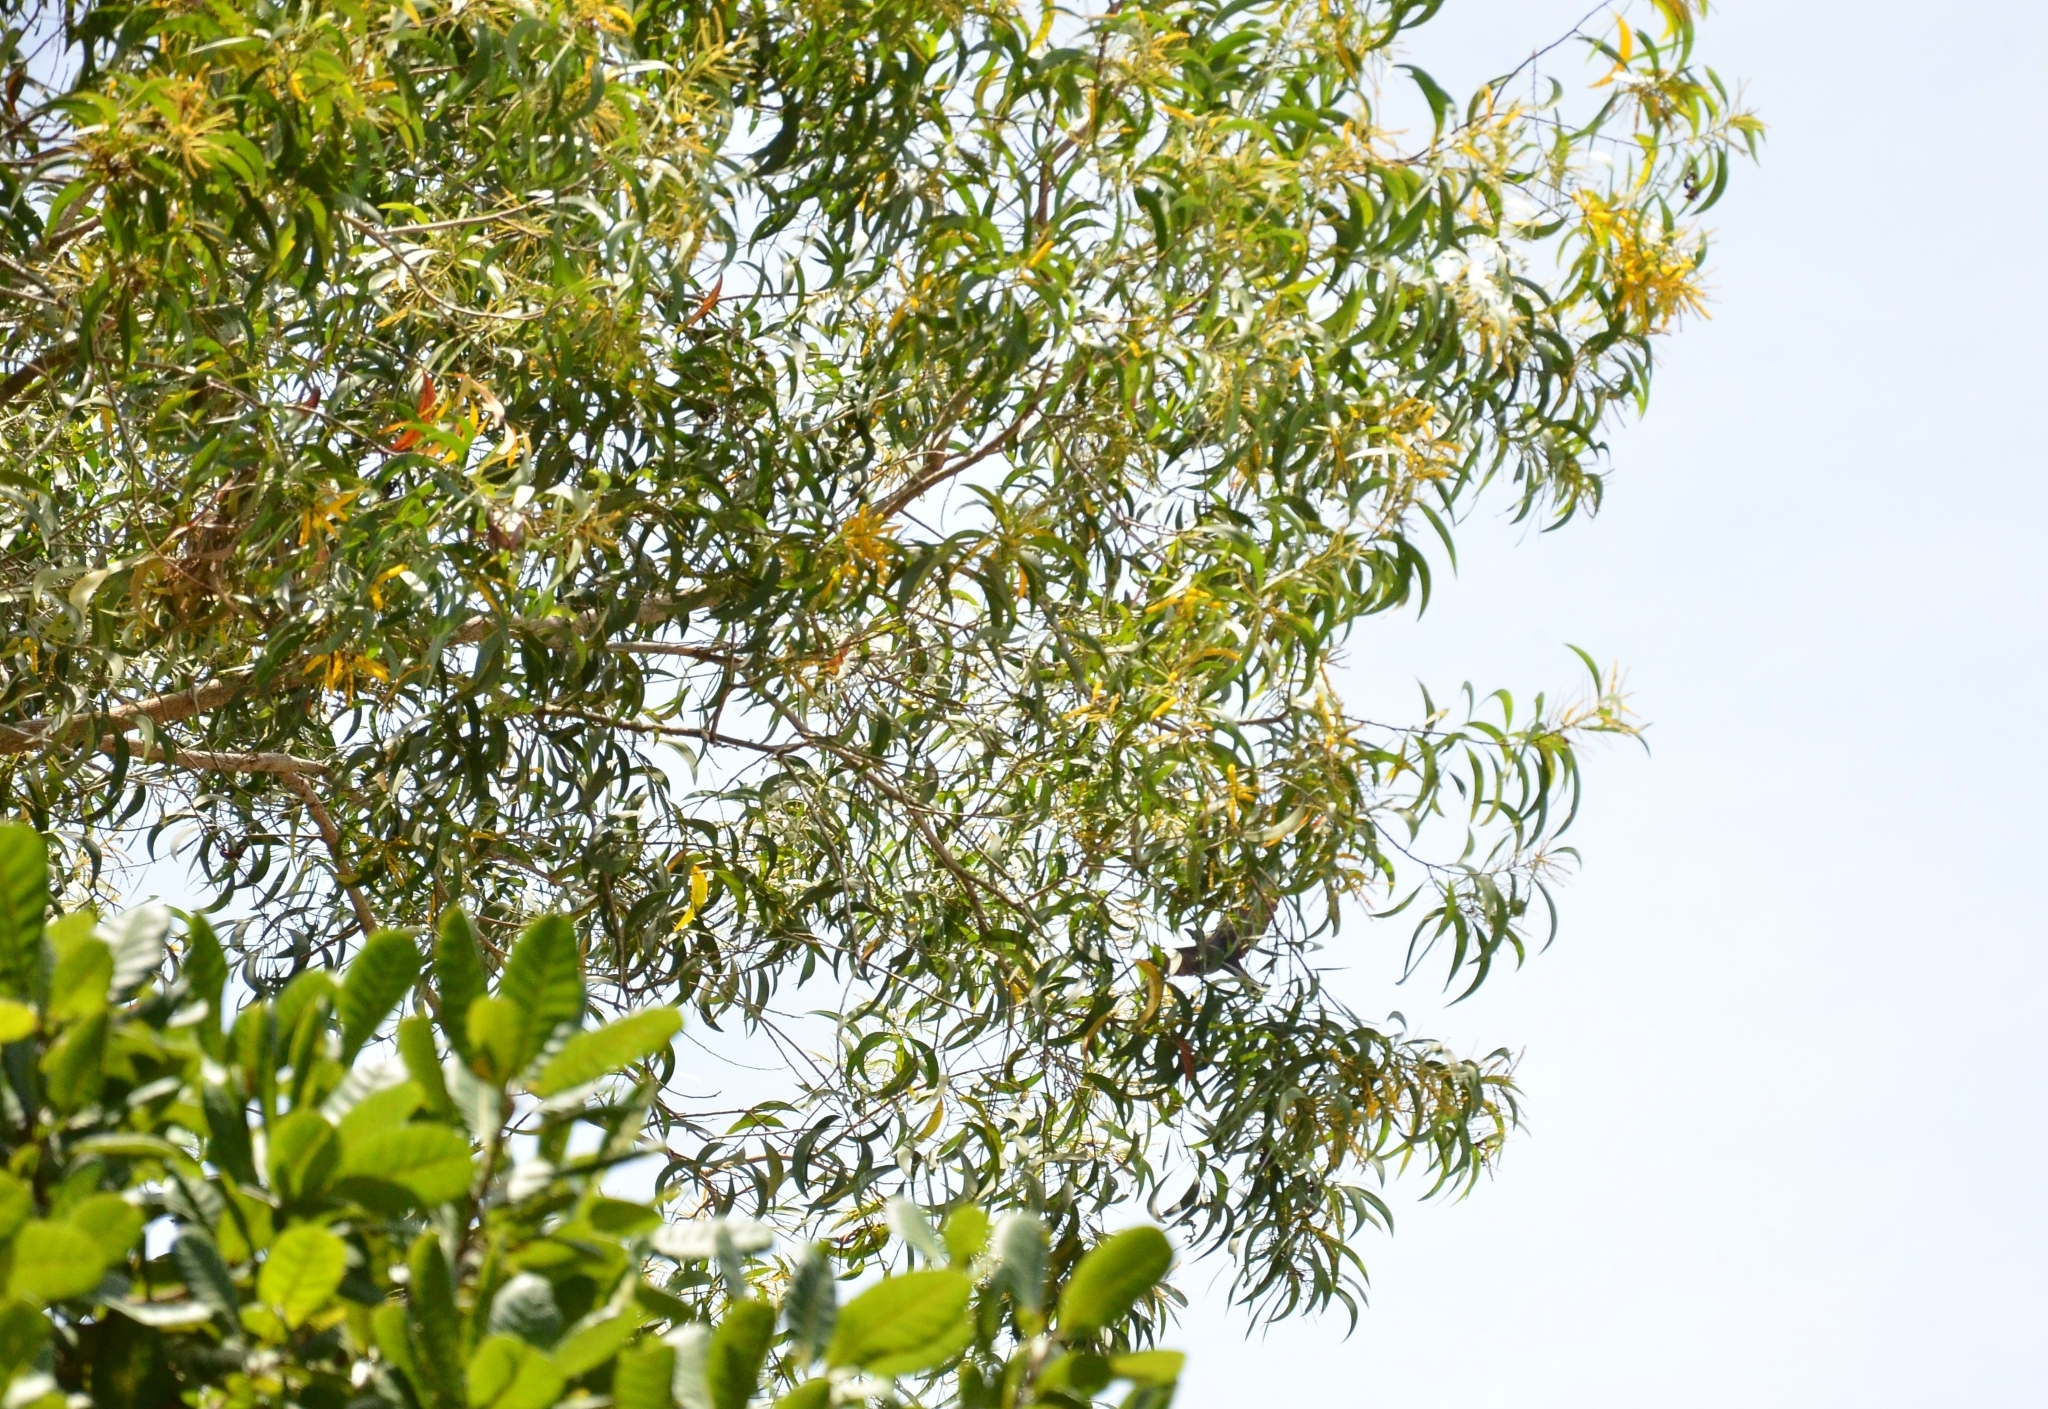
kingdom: Plantae
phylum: Tracheophyta
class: Magnoliopsida
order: Fabales
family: Fabaceae
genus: Acacia
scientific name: Acacia auriculiformis
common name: Earleaf acacia
